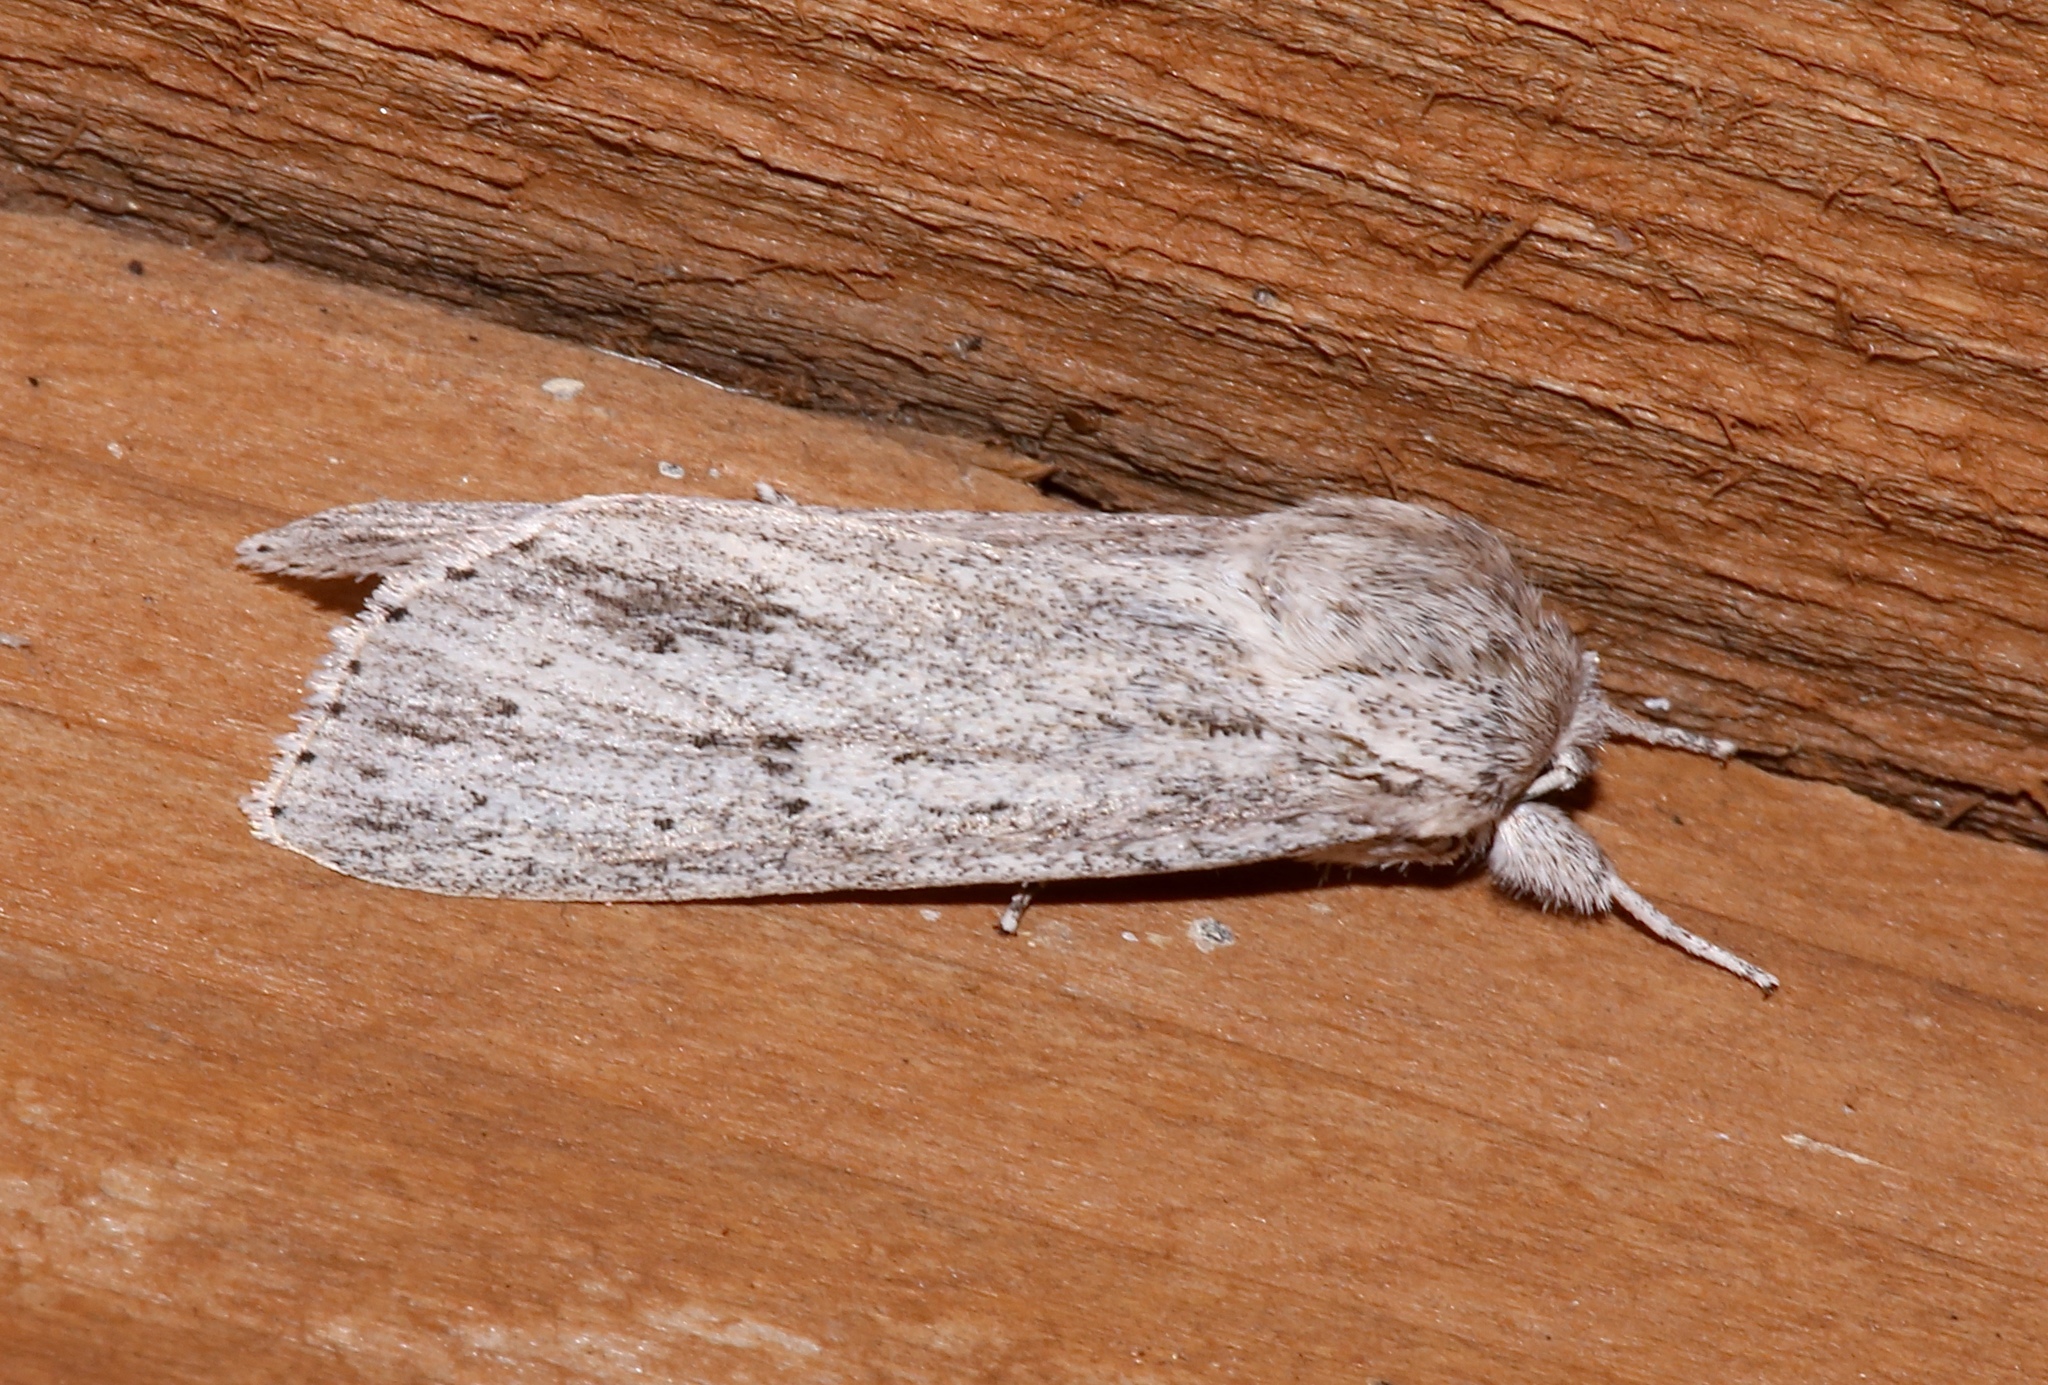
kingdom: Animalia
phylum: Arthropoda
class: Insecta
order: Lepidoptera
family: Noctuidae
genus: Acronicta
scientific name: Acronicta oblinita
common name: Smeared dagger
